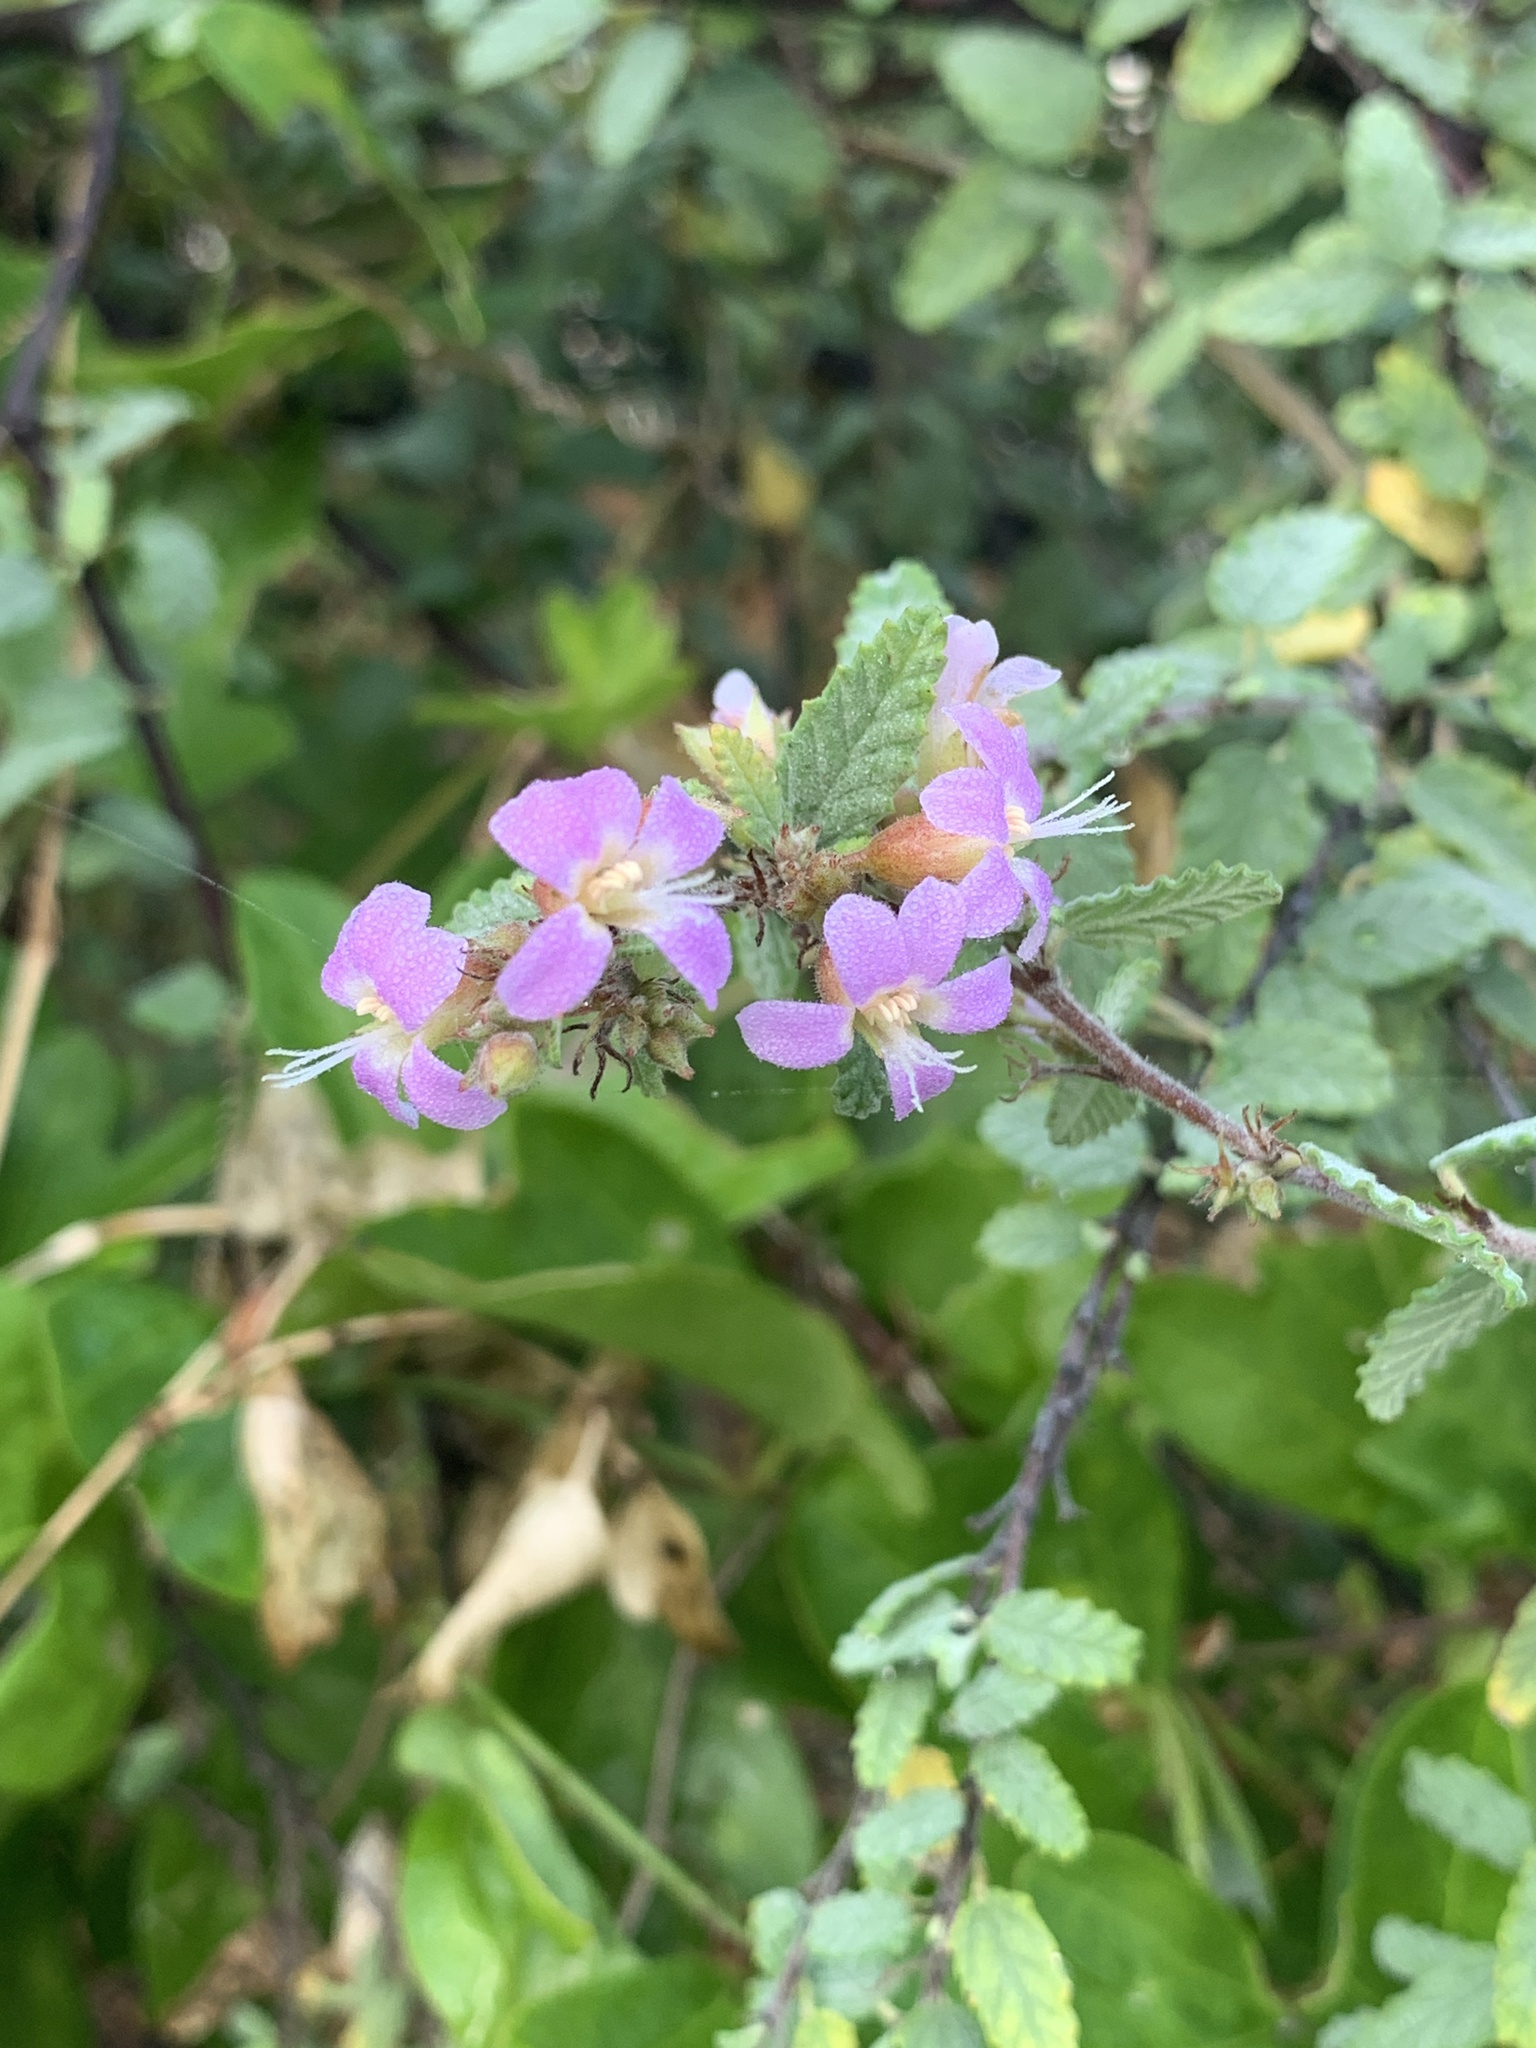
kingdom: Plantae
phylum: Tracheophyta
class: Magnoliopsida
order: Malvales
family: Malvaceae
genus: Melochia
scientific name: Melochia tomentosa
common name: Black torch
